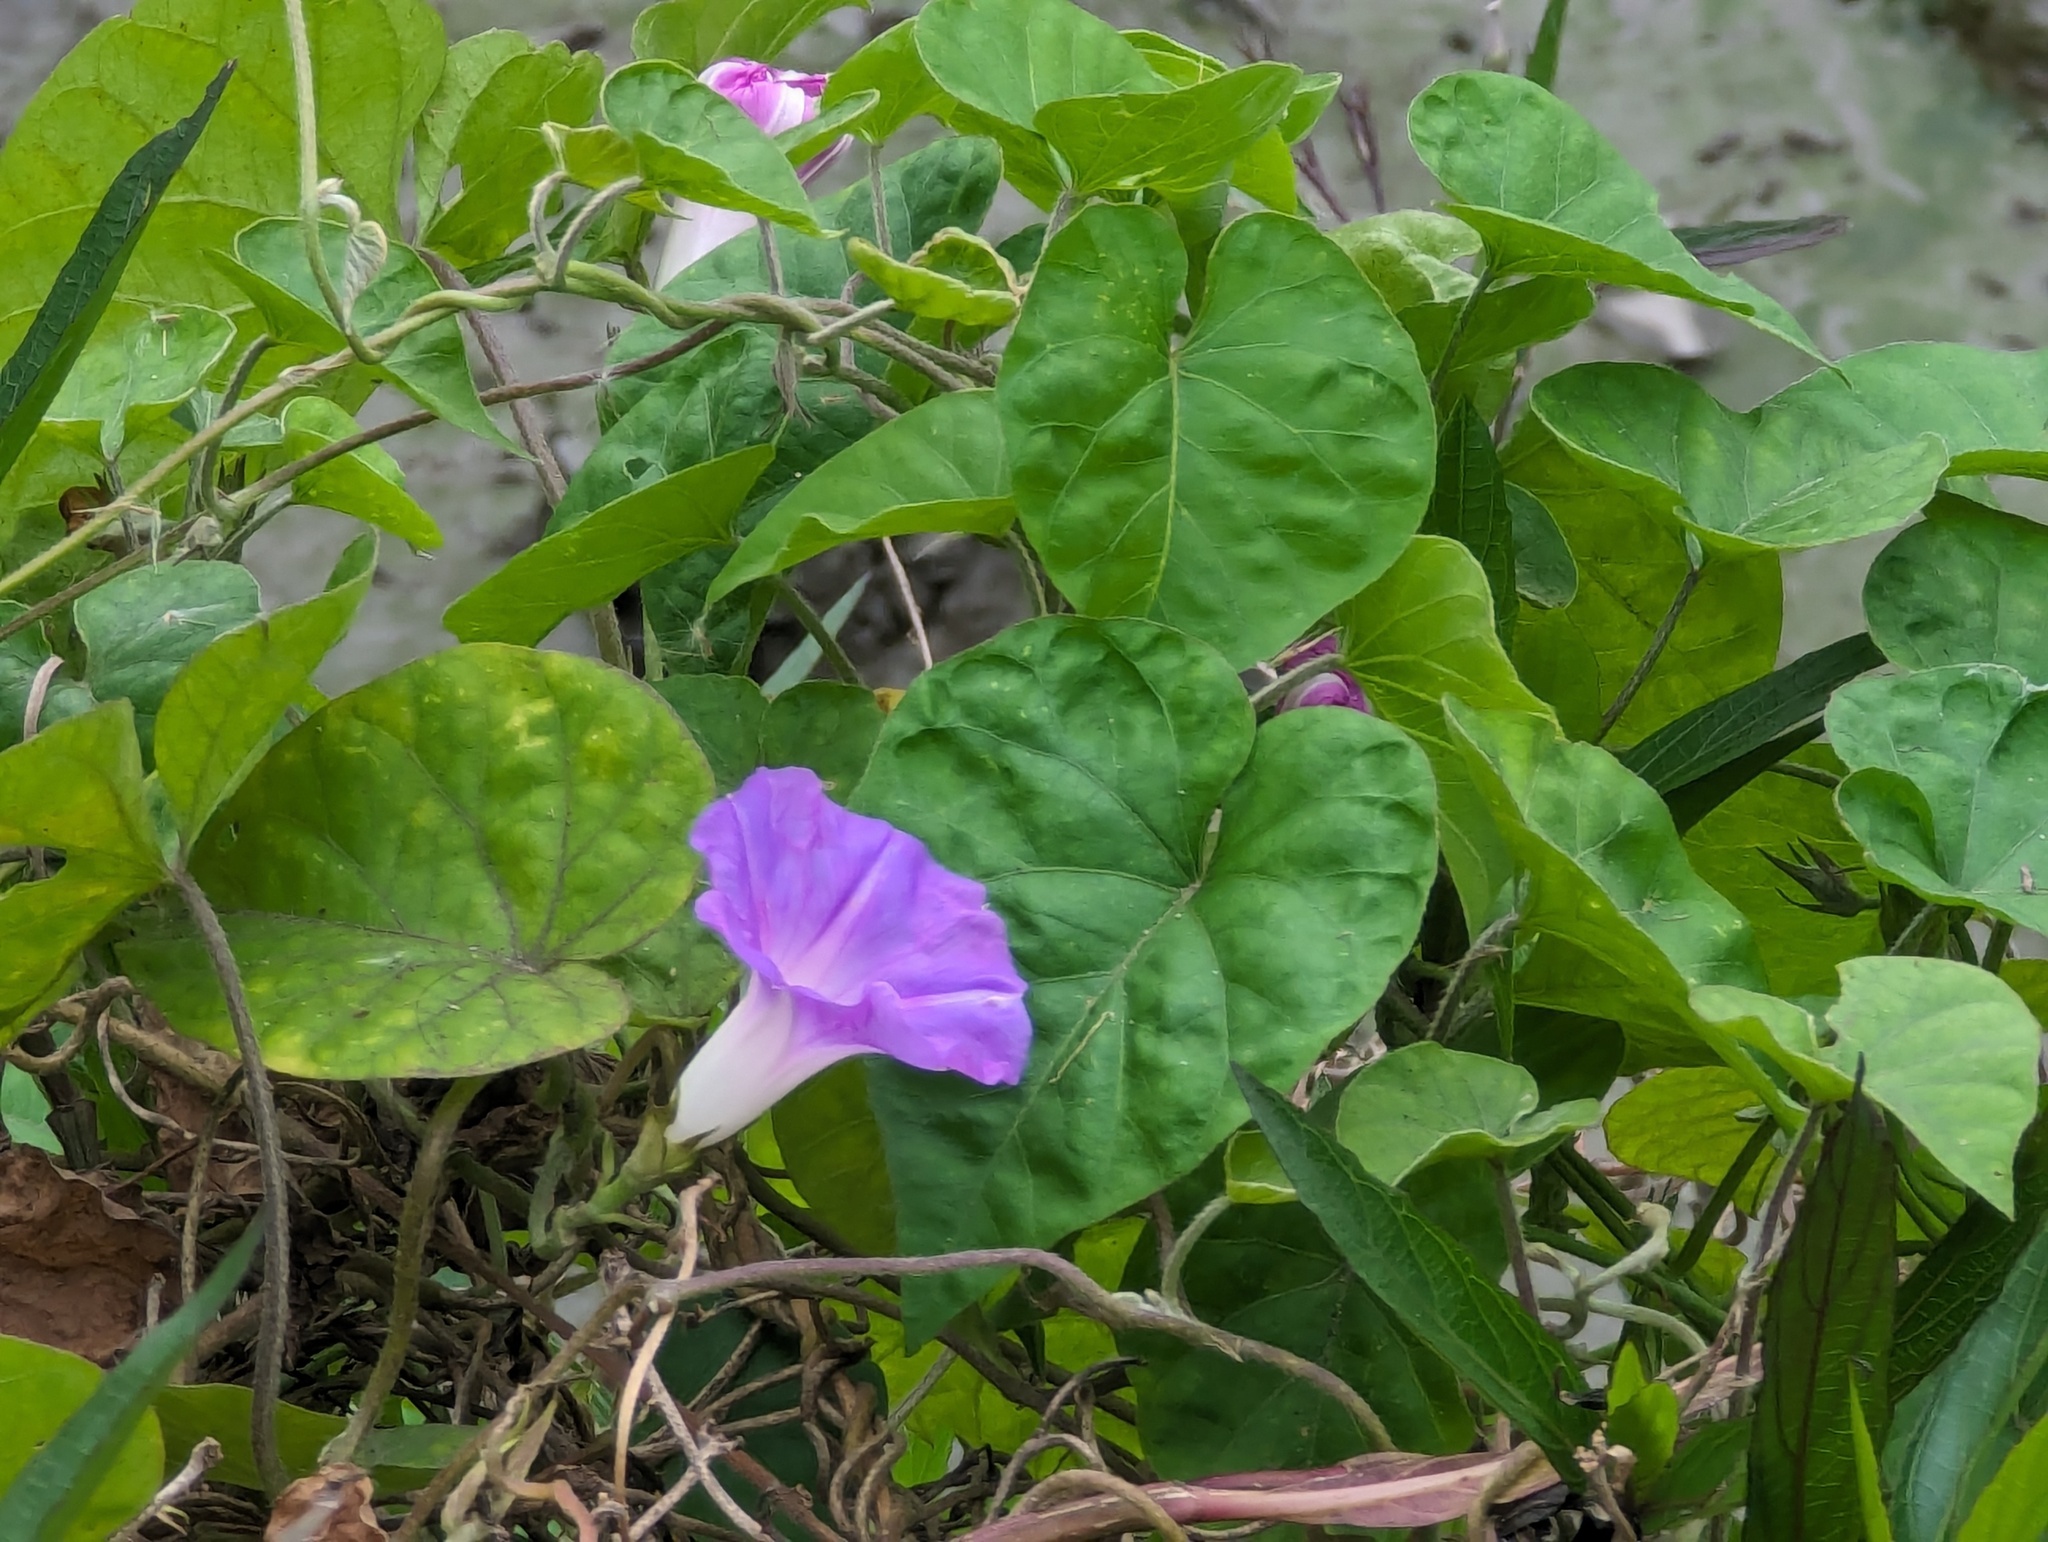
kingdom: Plantae
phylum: Tracheophyta
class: Magnoliopsida
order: Solanales
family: Convolvulaceae
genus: Ipomoea
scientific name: Ipomoea indica
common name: Blue dawnflower
